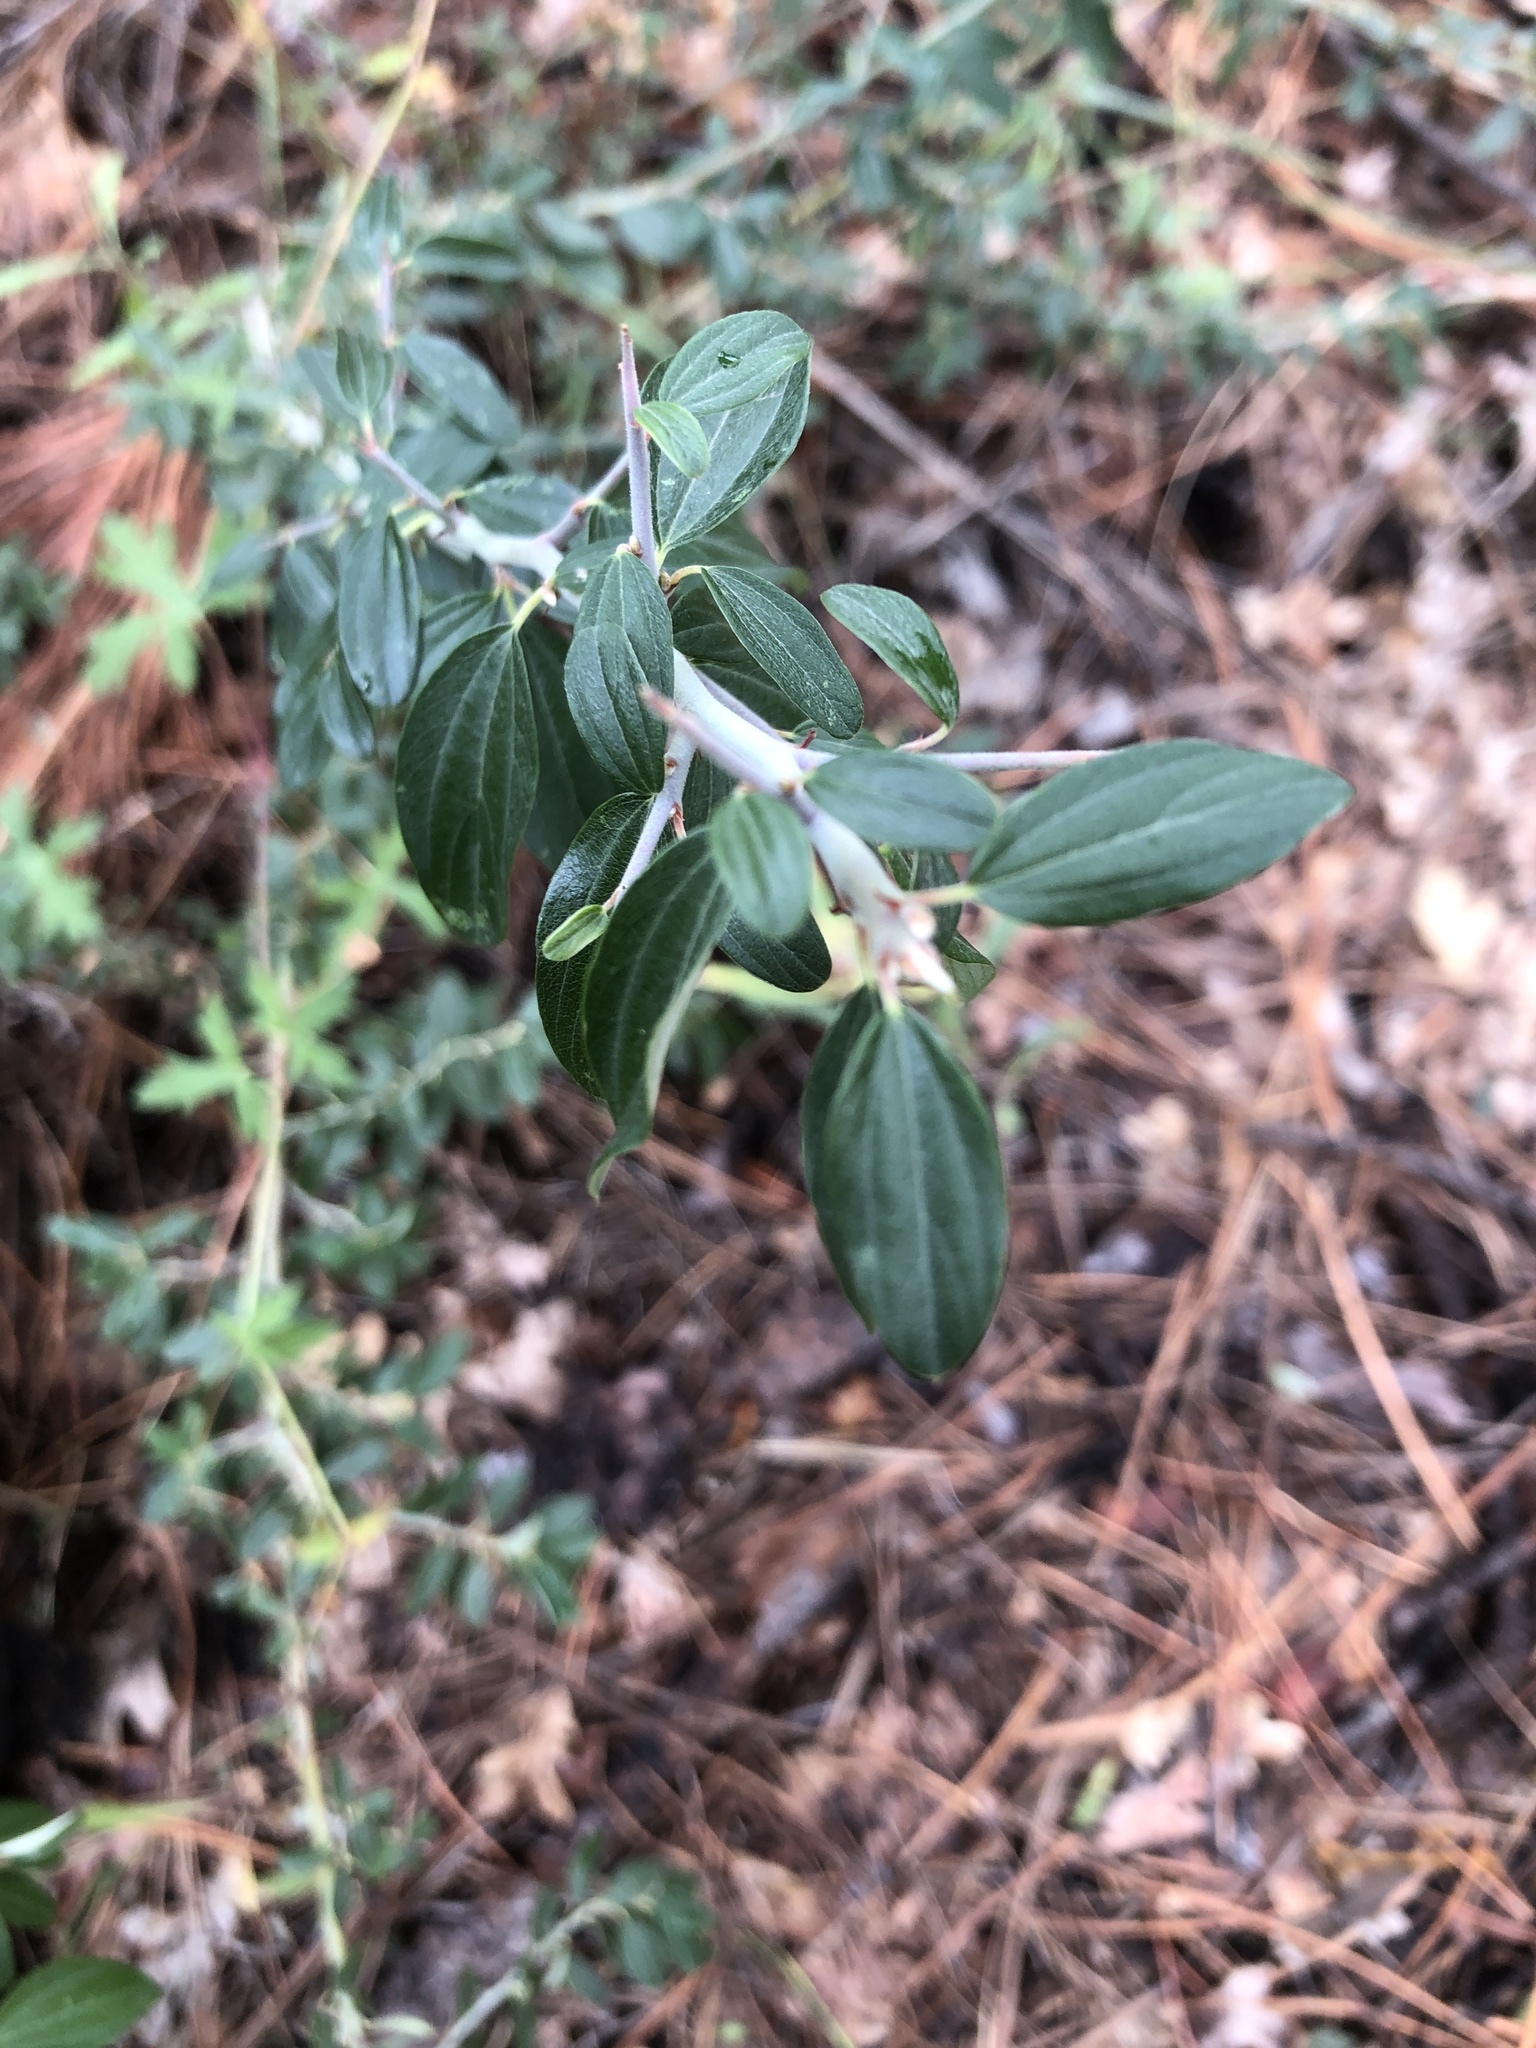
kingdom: Plantae
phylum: Tracheophyta
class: Magnoliopsida
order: Rosales
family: Rhamnaceae
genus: Ceanothus
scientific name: Ceanothus fendleri
